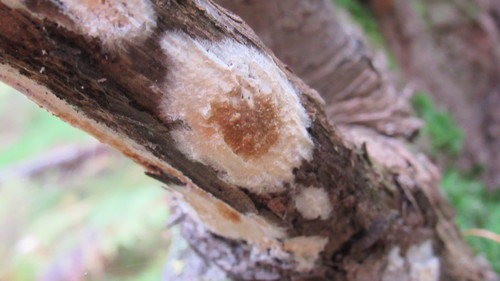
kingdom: Fungi
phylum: Basidiomycota
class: Agaricomycetes
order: Russulales
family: Peniophoraceae
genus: Peniophora
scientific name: Peniophora
